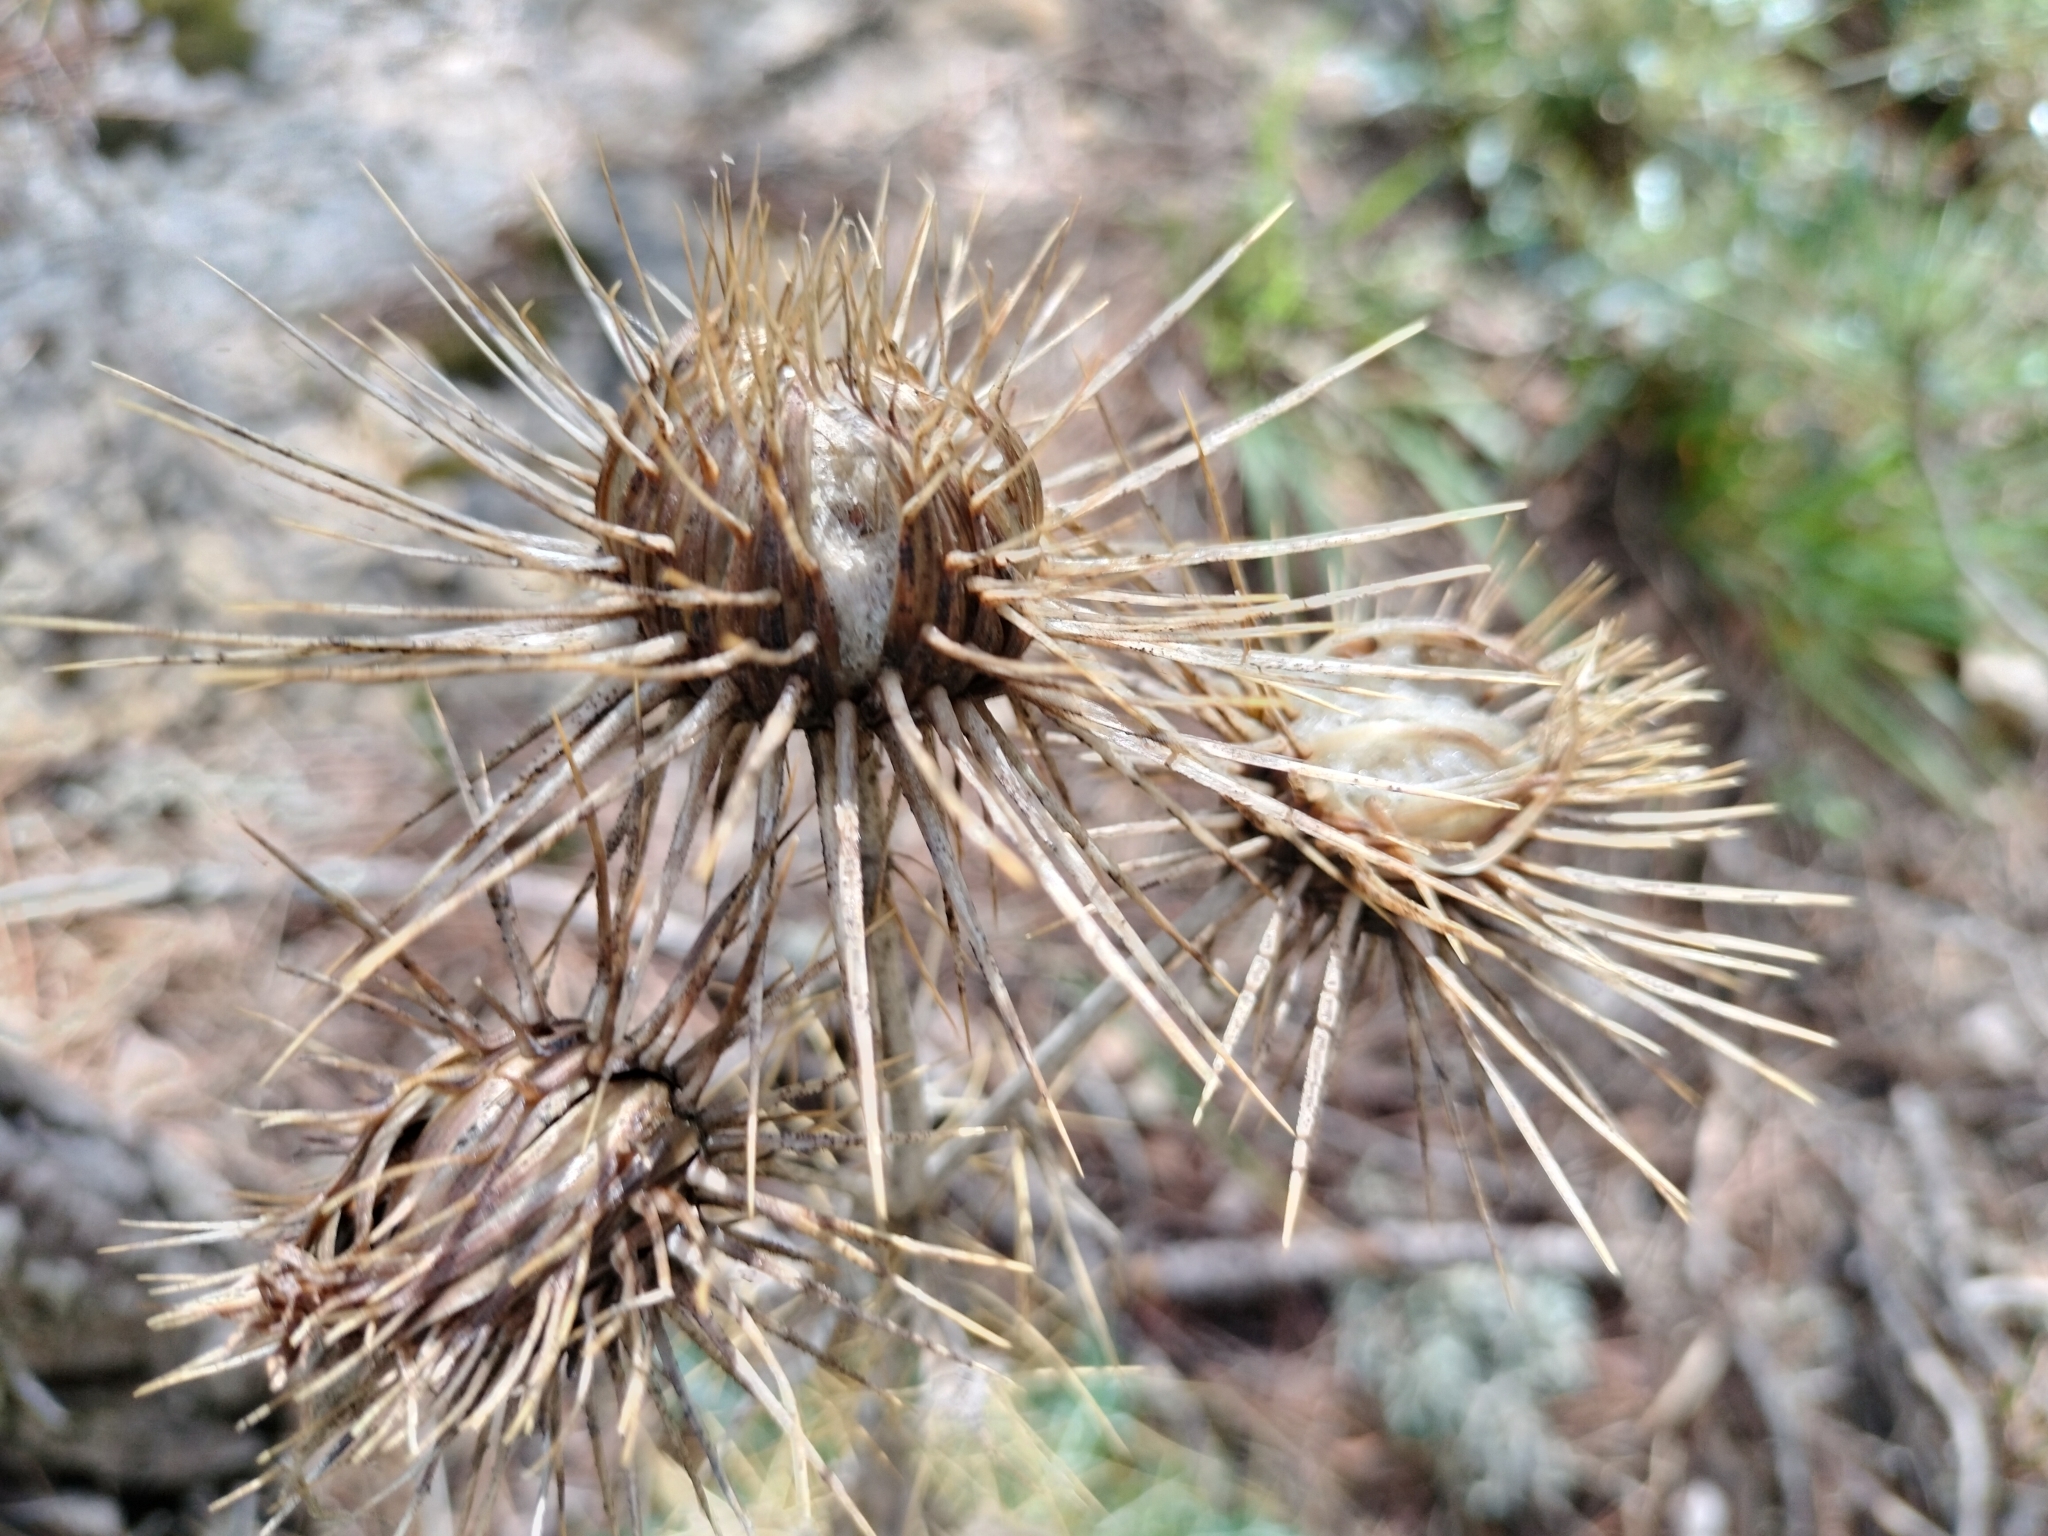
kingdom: Plantae
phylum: Tracheophyta
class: Magnoliopsida
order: Asterales
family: Asteraceae
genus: Ptilostemon
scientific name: Ptilostemon hispanicus
